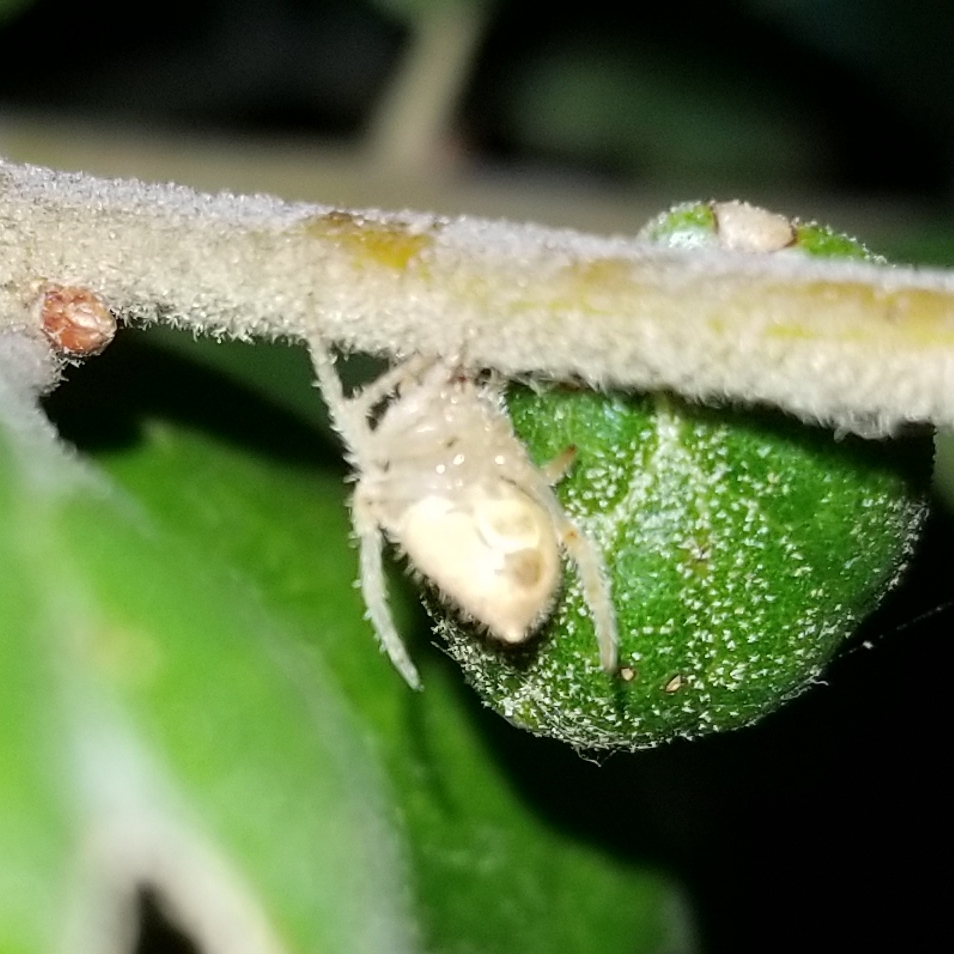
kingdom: Animalia
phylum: Arthropoda
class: Arachnida
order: Araneae
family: Araneidae
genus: Eriophora
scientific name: Eriophora edax
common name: Orb weavers
